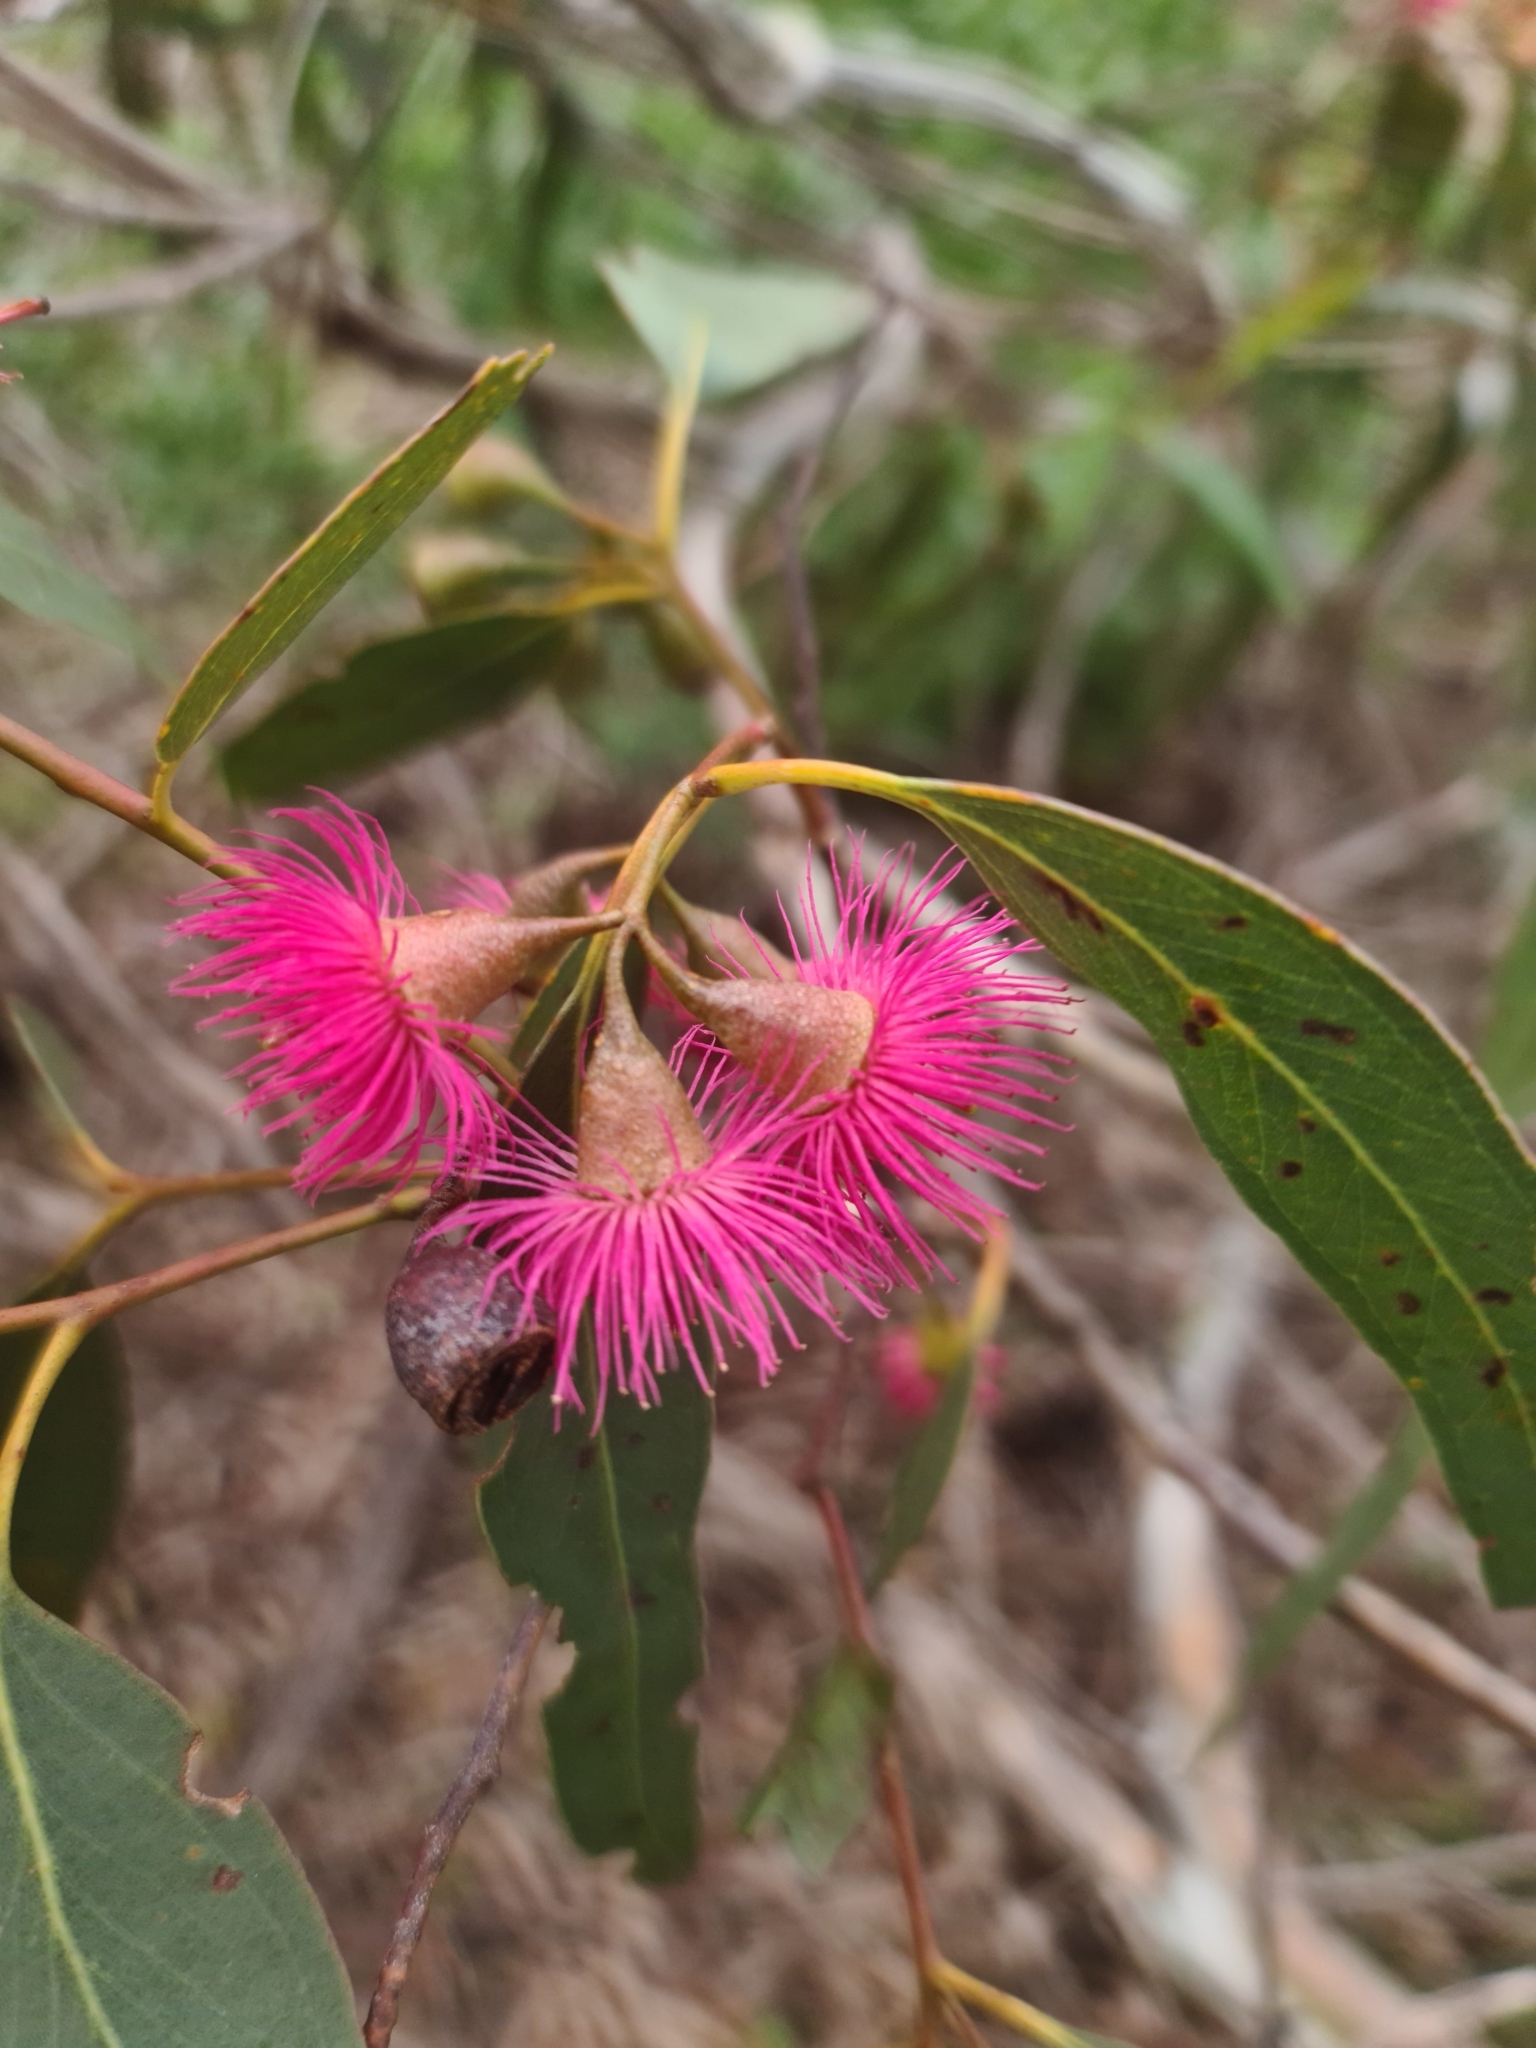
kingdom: Plantae
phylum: Tracheophyta
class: Magnoliopsida
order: Myrtales
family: Myrtaceae
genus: Eucalyptus
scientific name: Eucalyptus leucoxylon
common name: Blue gum
